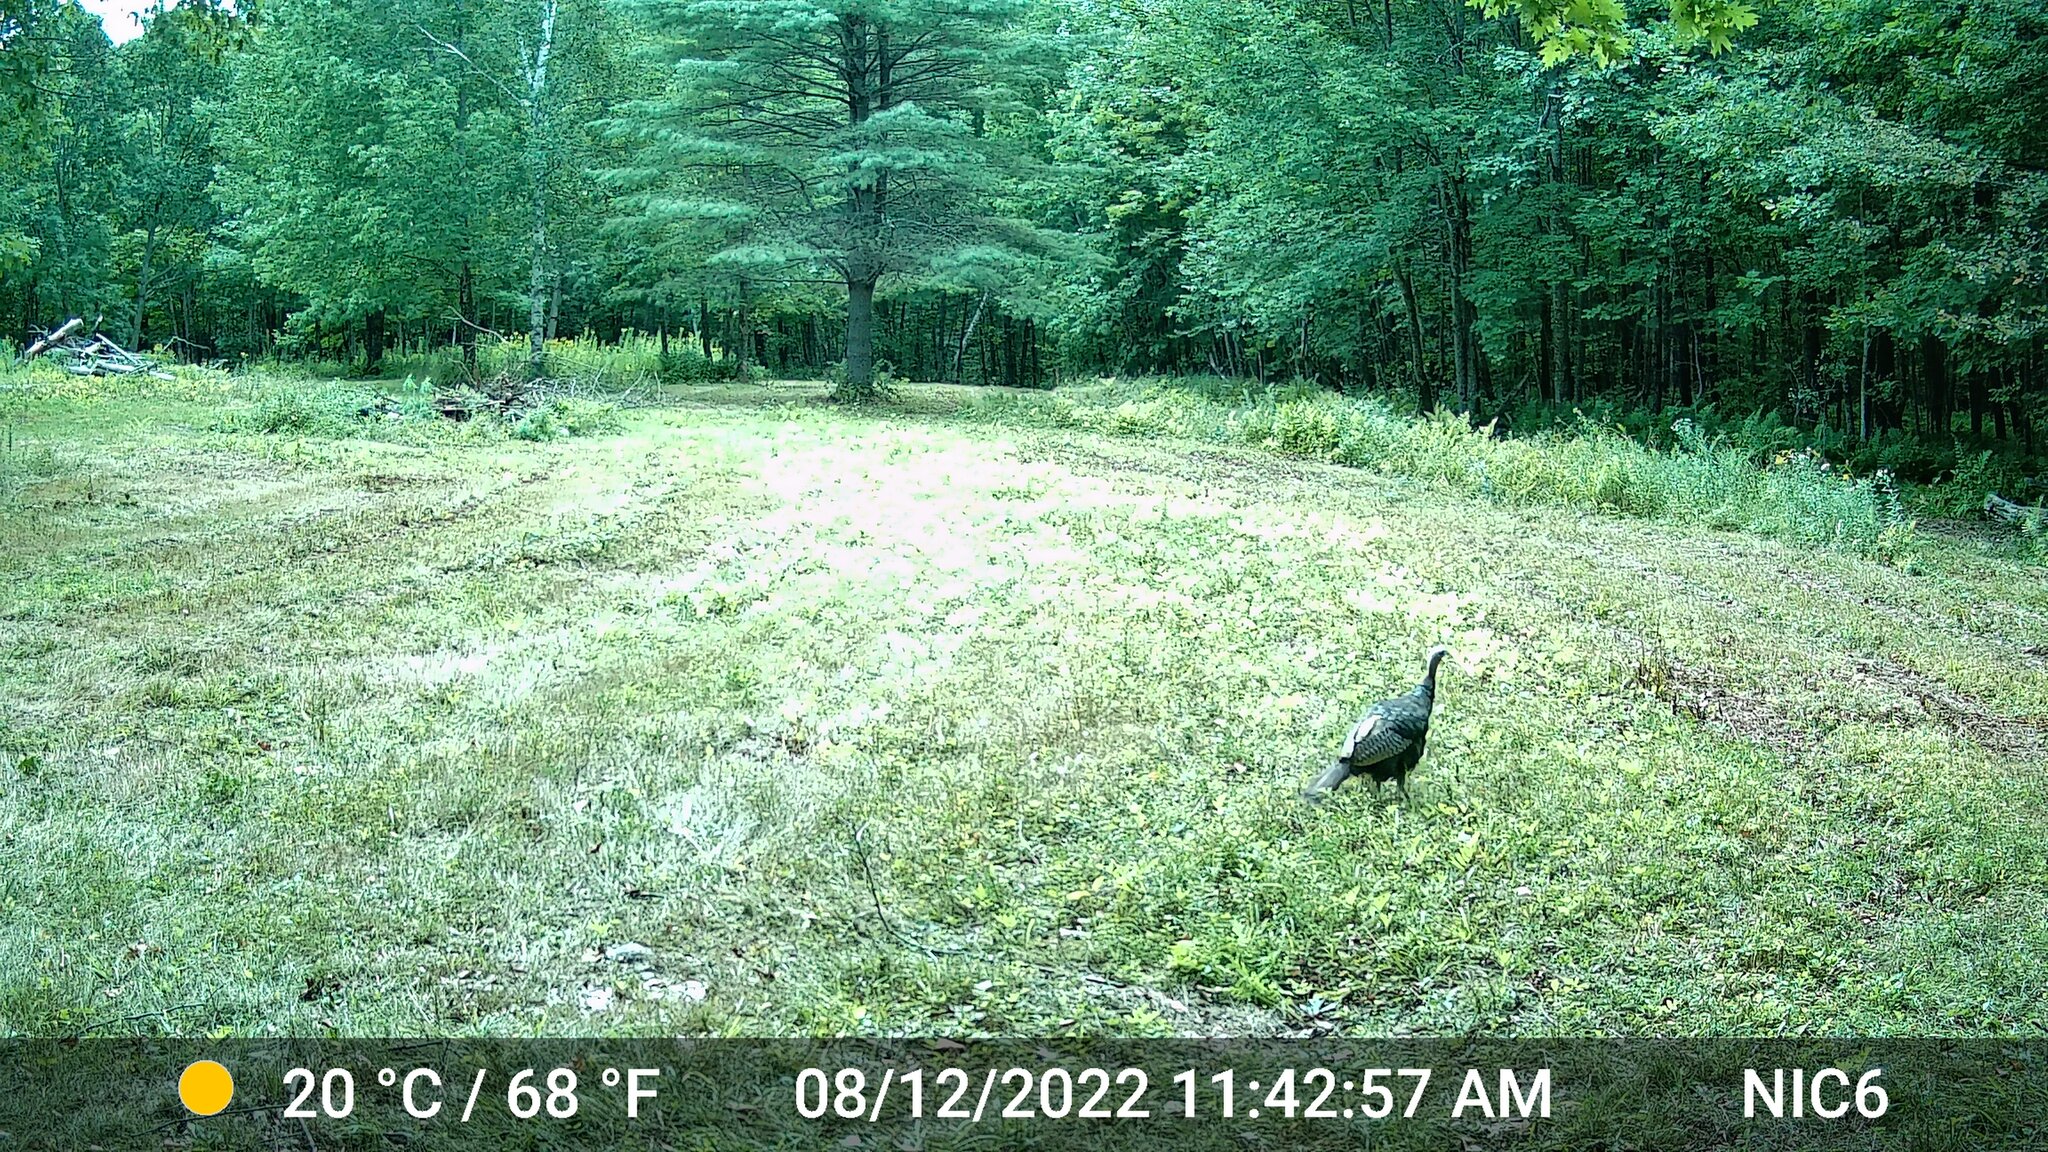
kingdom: Animalia
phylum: Chordata
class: Aves
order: Galliformes
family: Phasianidae
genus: Meleagris
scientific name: Meleagris gallopavo
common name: Wild turkey
